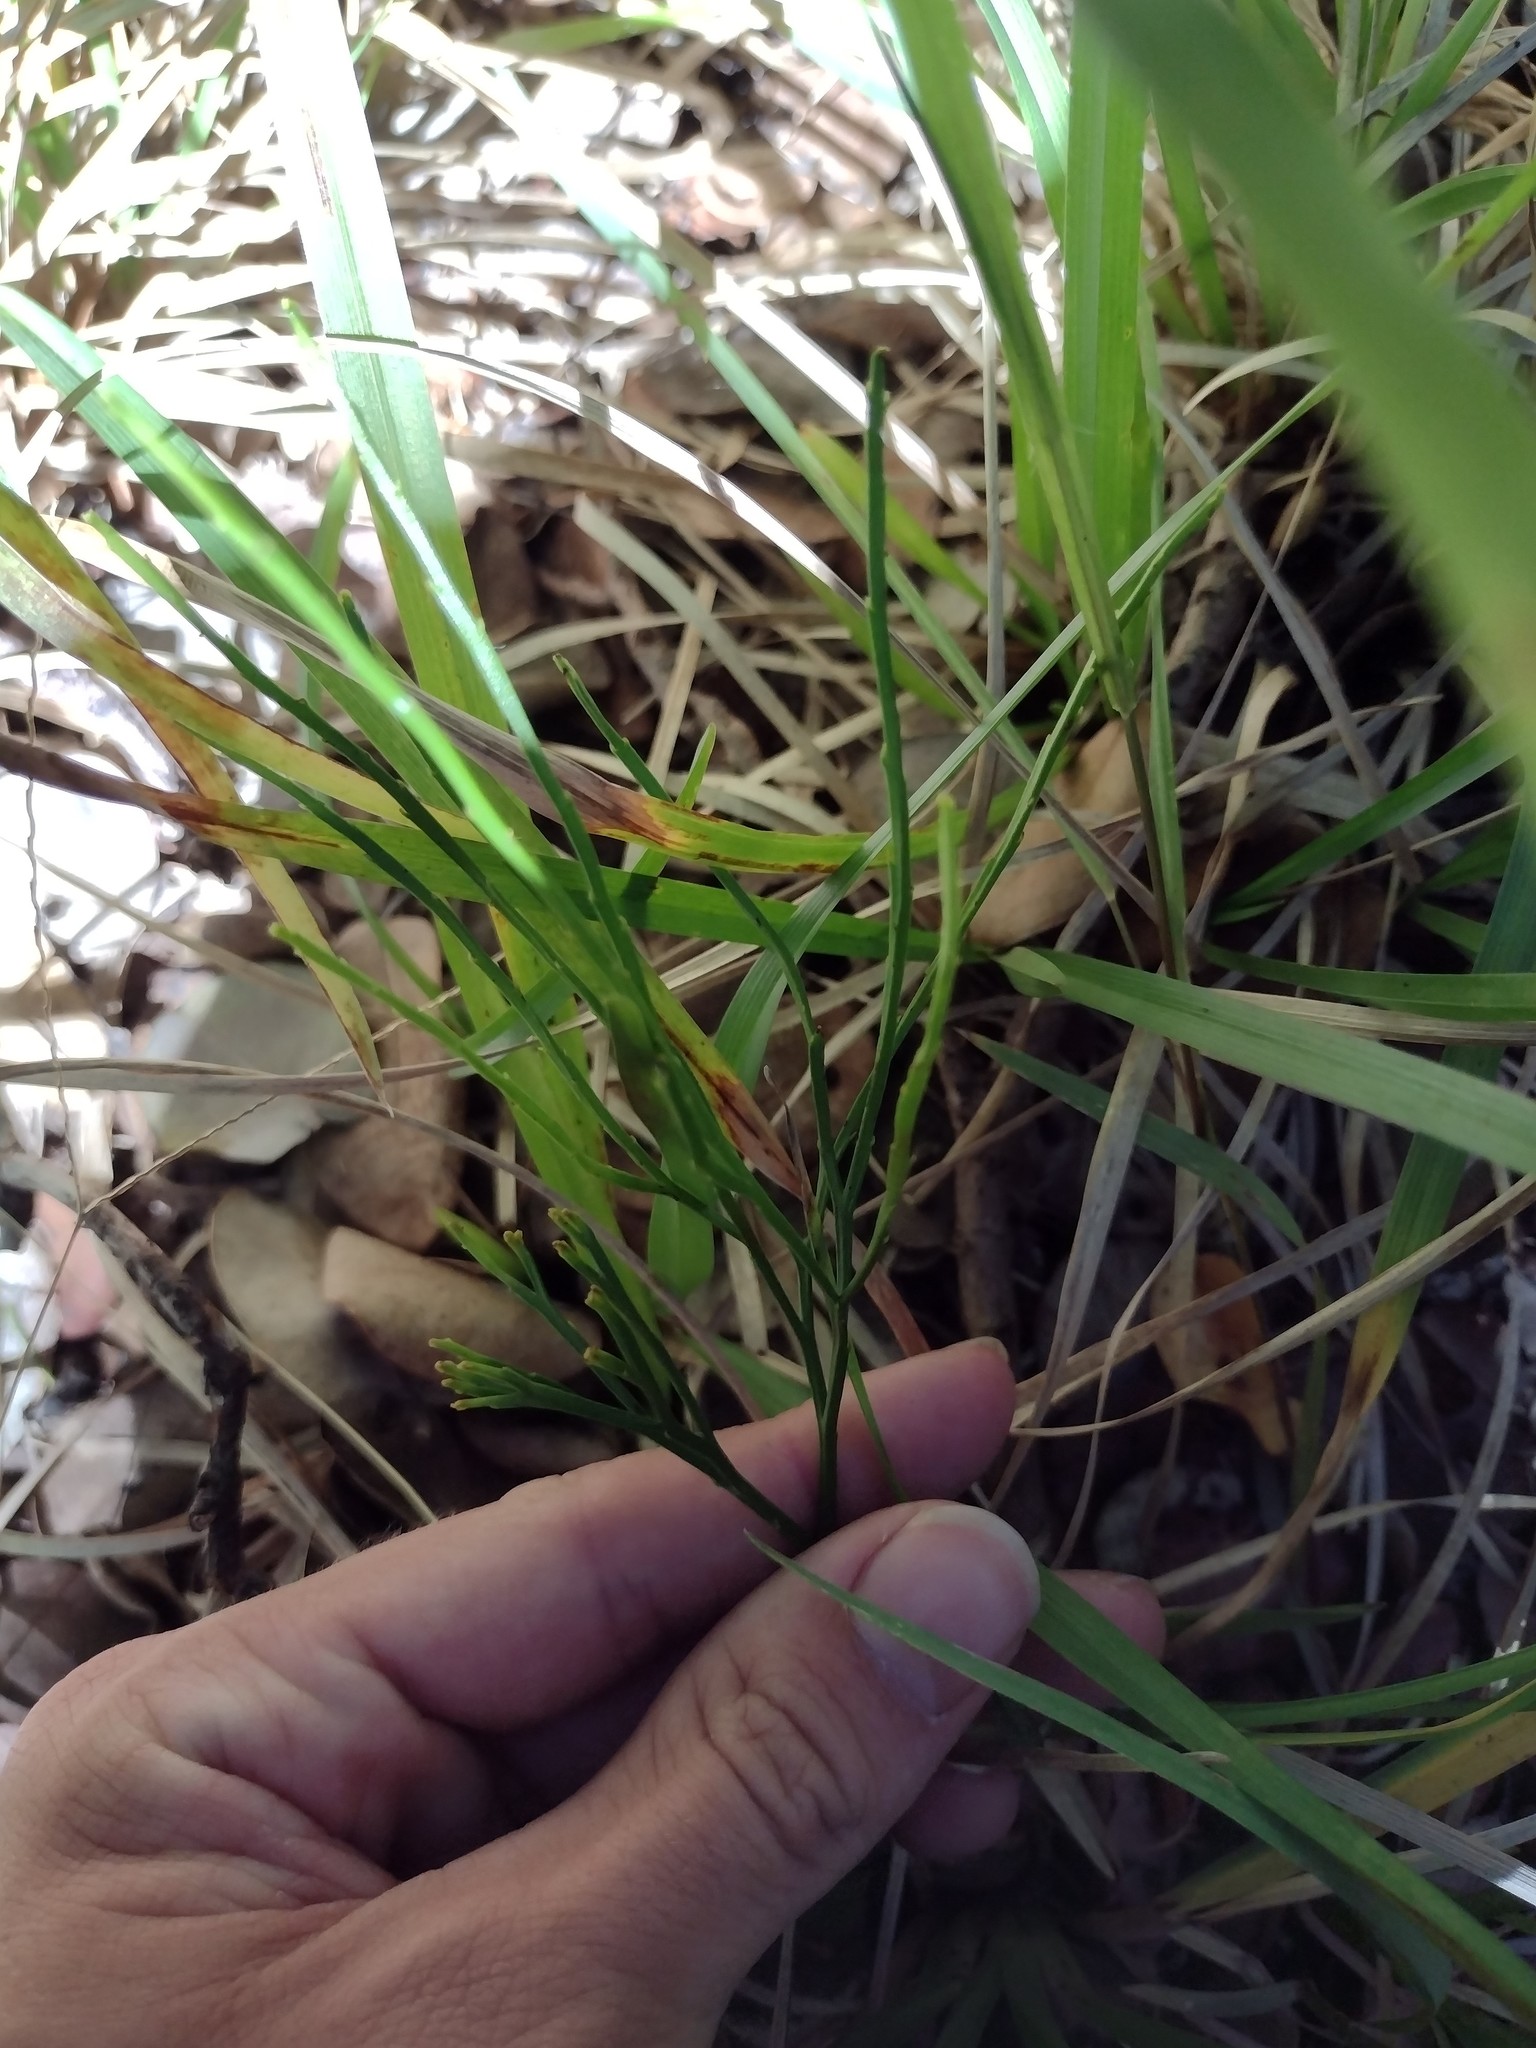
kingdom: Plantae
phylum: Tracheophyta
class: Polypodiopsida
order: Psilotales
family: Psilotaceae
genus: Psilotum
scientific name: Psilotum nudum
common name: Skeleton fork fern
